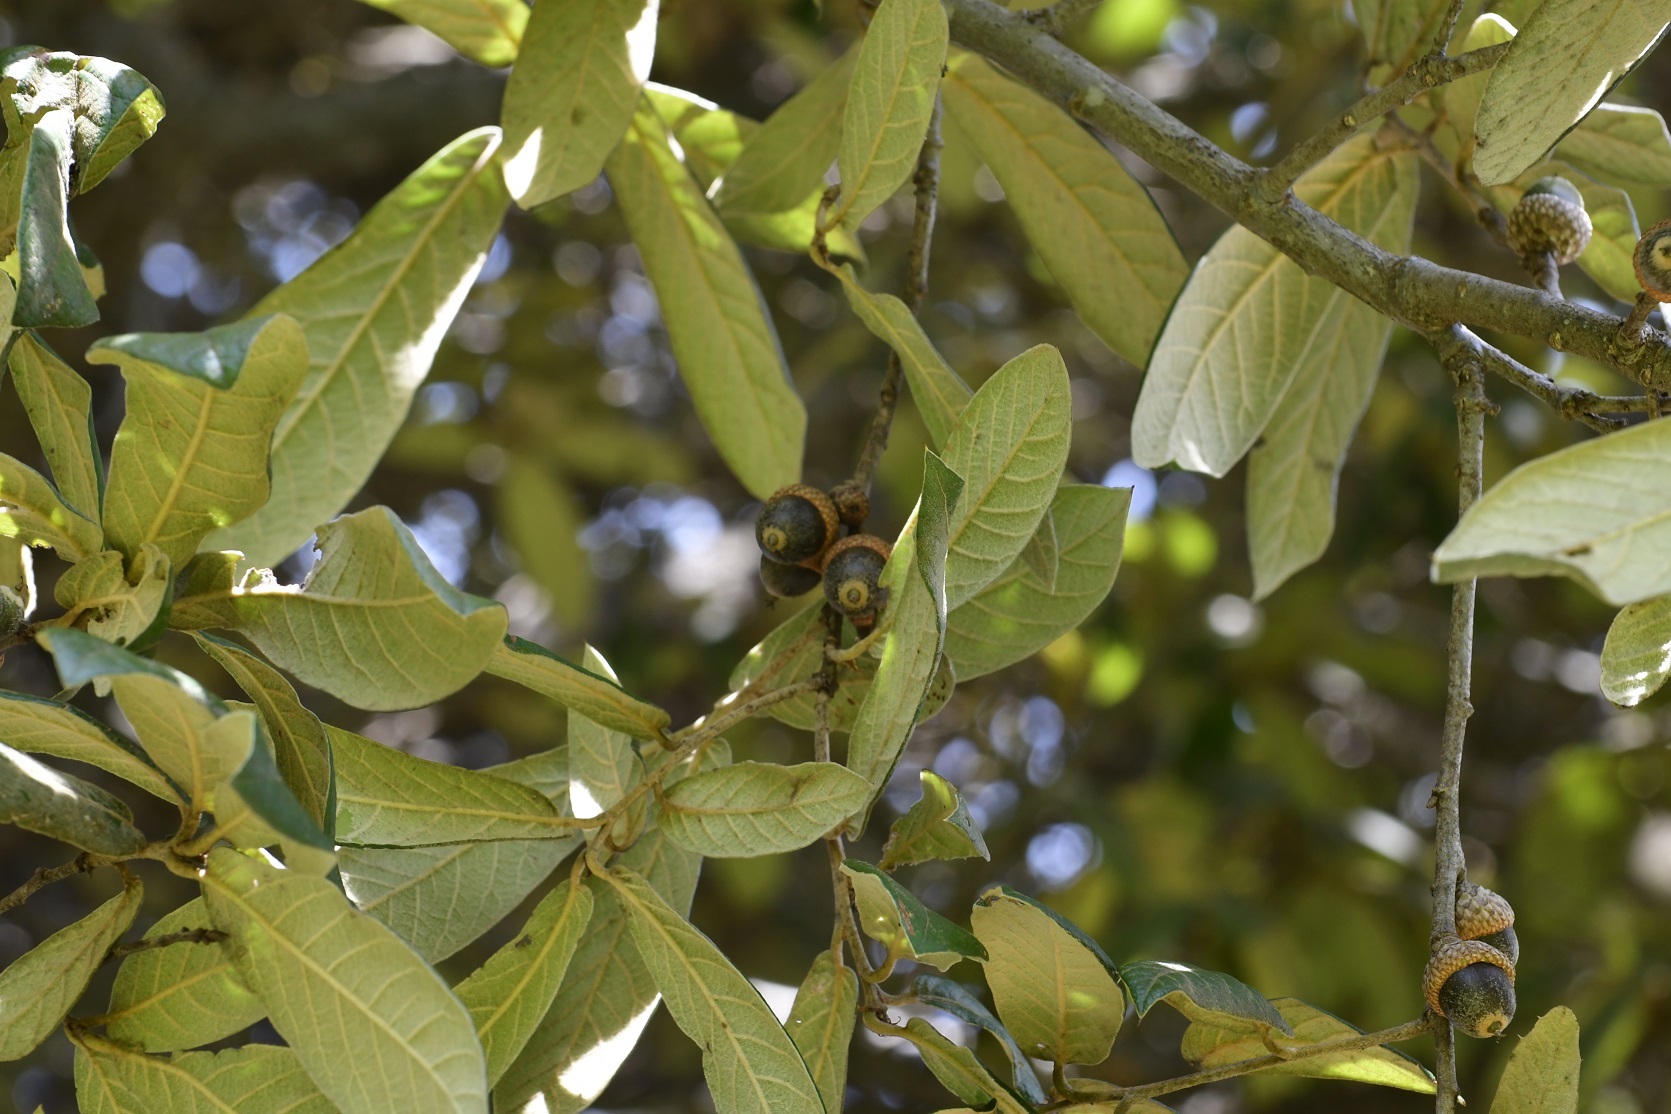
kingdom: Plantae
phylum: Tracheophyta
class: Magnoliopsida
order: Fagales
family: Fagaceae
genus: Quercus
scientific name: Quercus dysophylla
